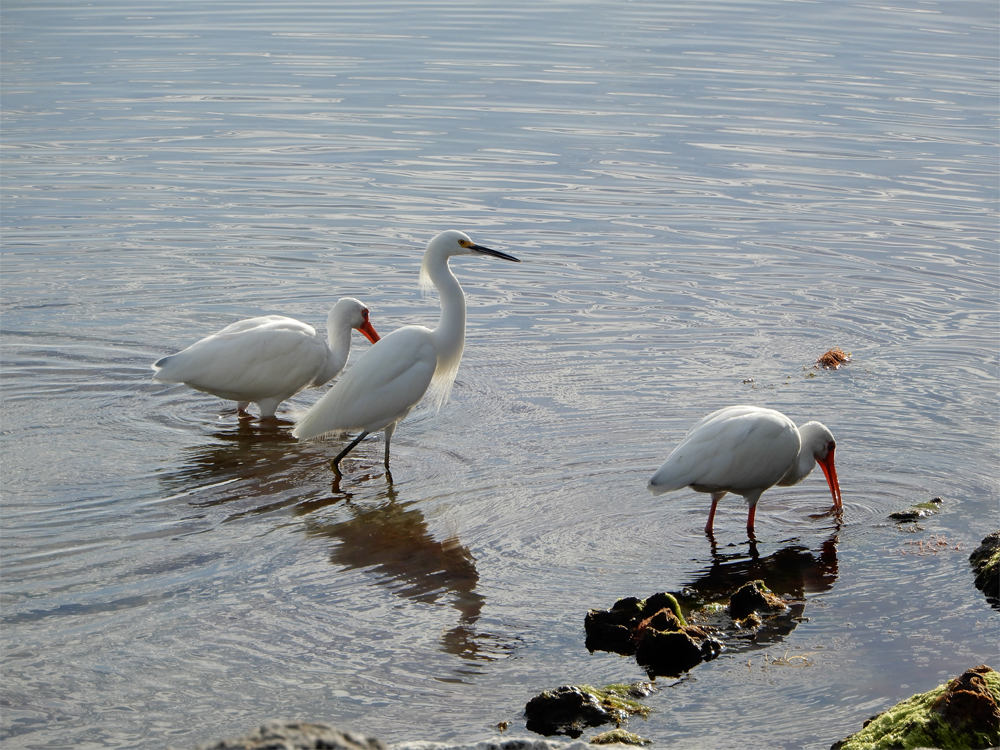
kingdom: Animalia
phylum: Chordata
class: Aves
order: Pelecaniformes
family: Ardeidae
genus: Egretta
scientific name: Egretta thula
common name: Snowy egret
